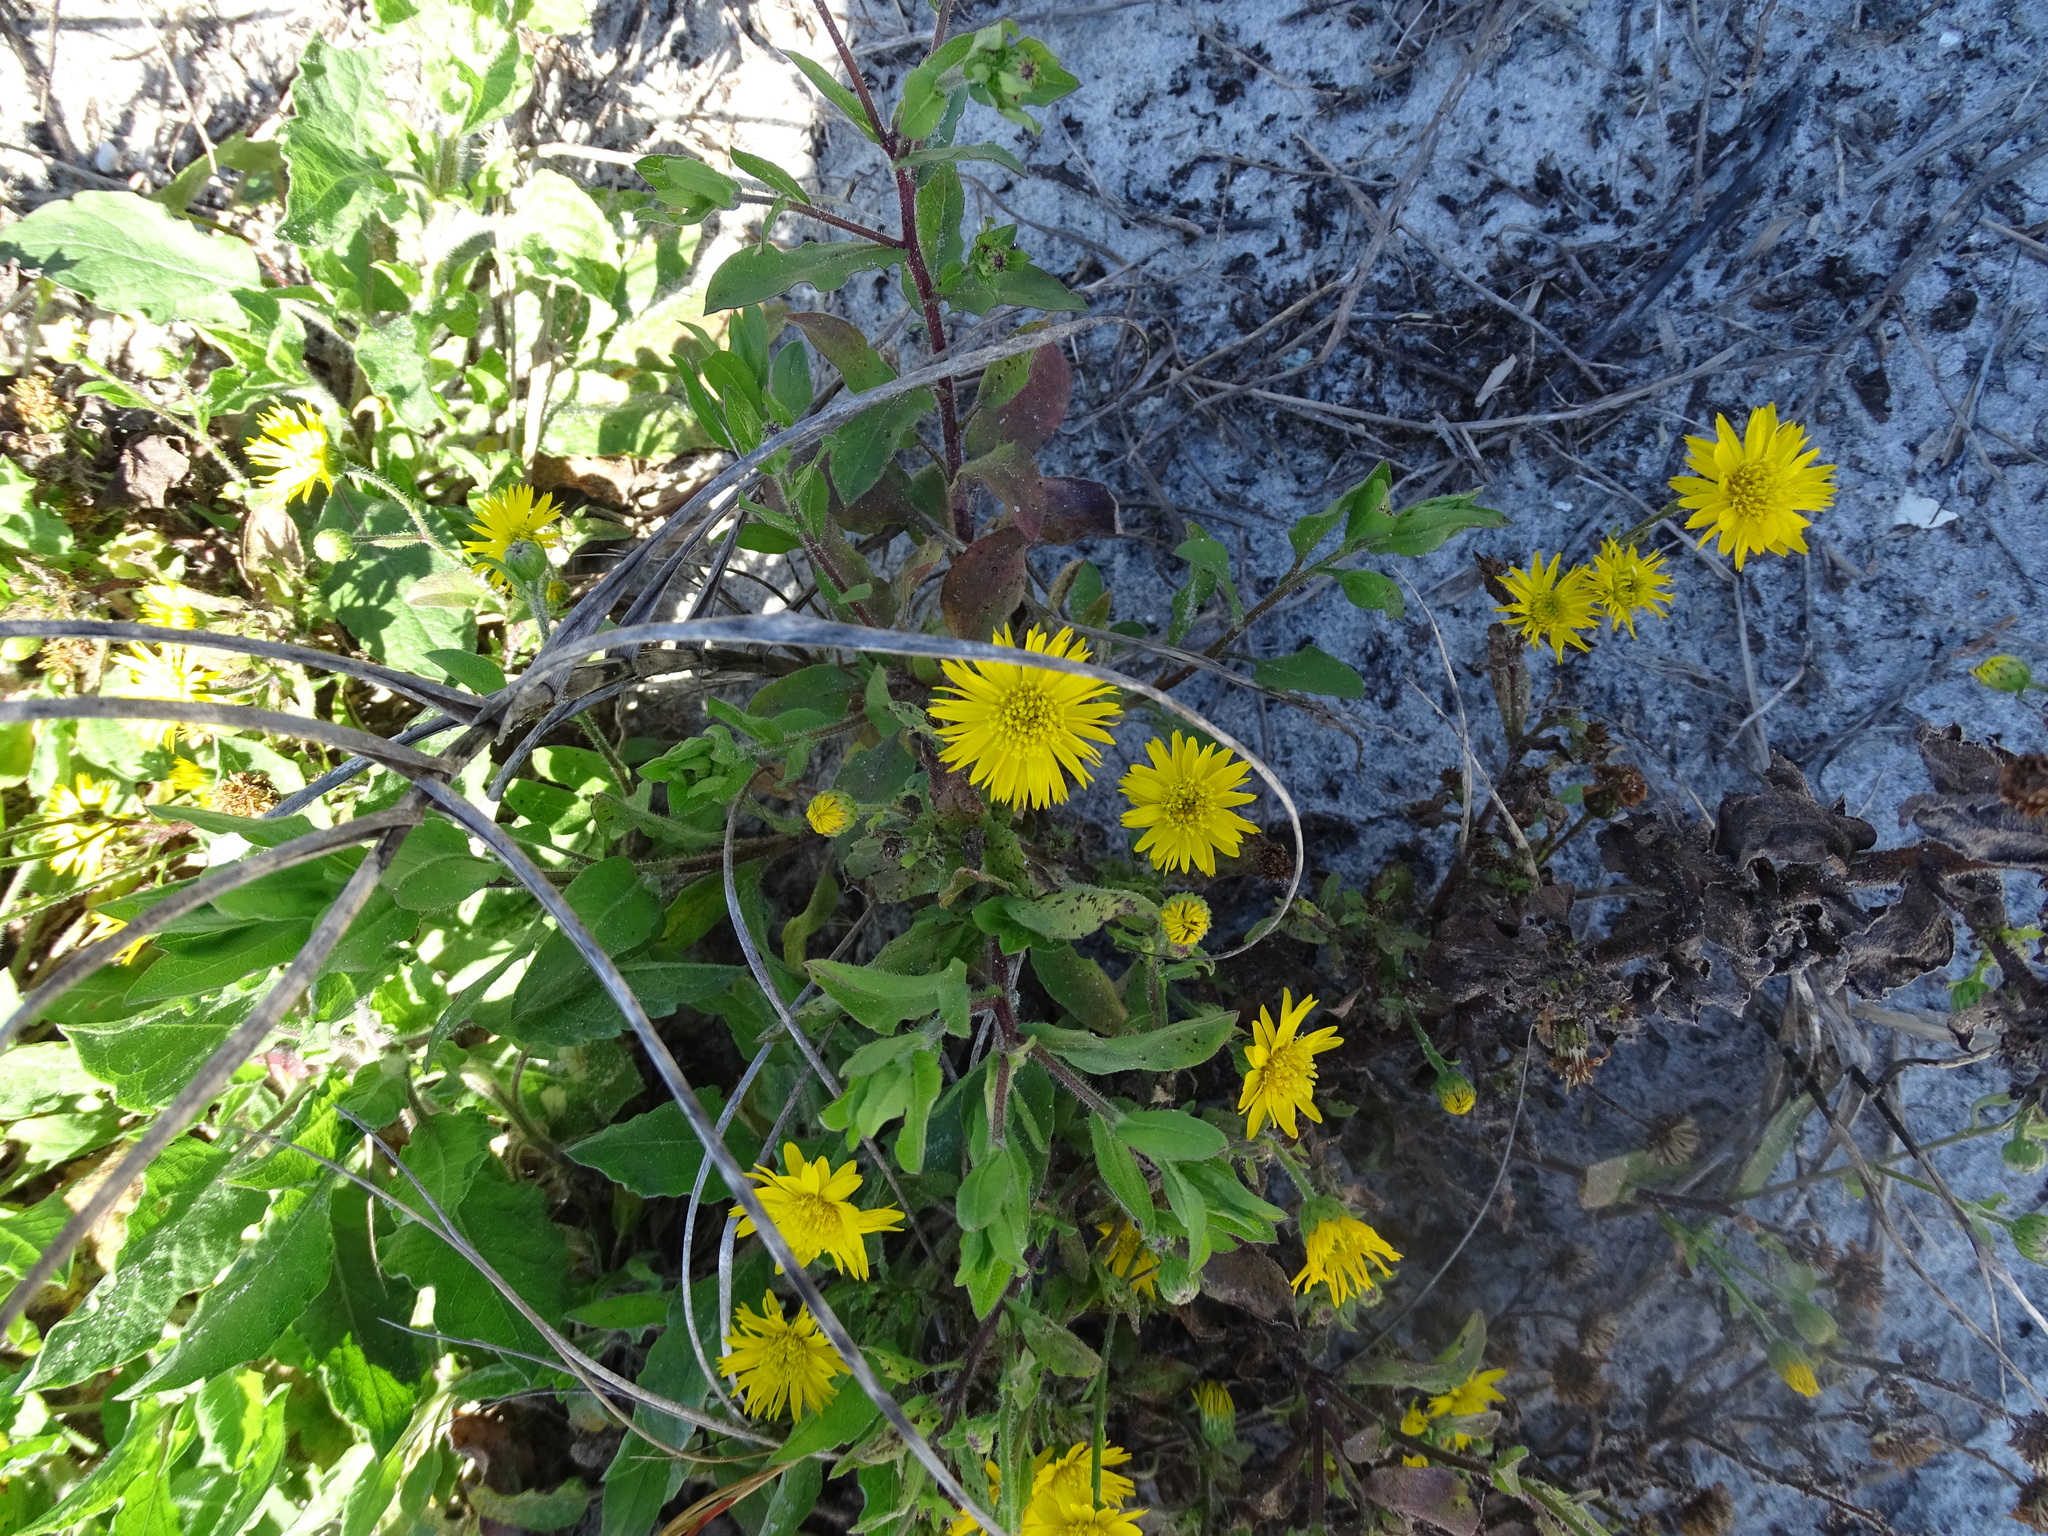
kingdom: Plantae
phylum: Tracheophyta
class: Magnoliopsida
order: Asterales
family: Asteraceae
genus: Heterotheca
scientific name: Heterotheca subaxillaris
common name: Camphorweed
